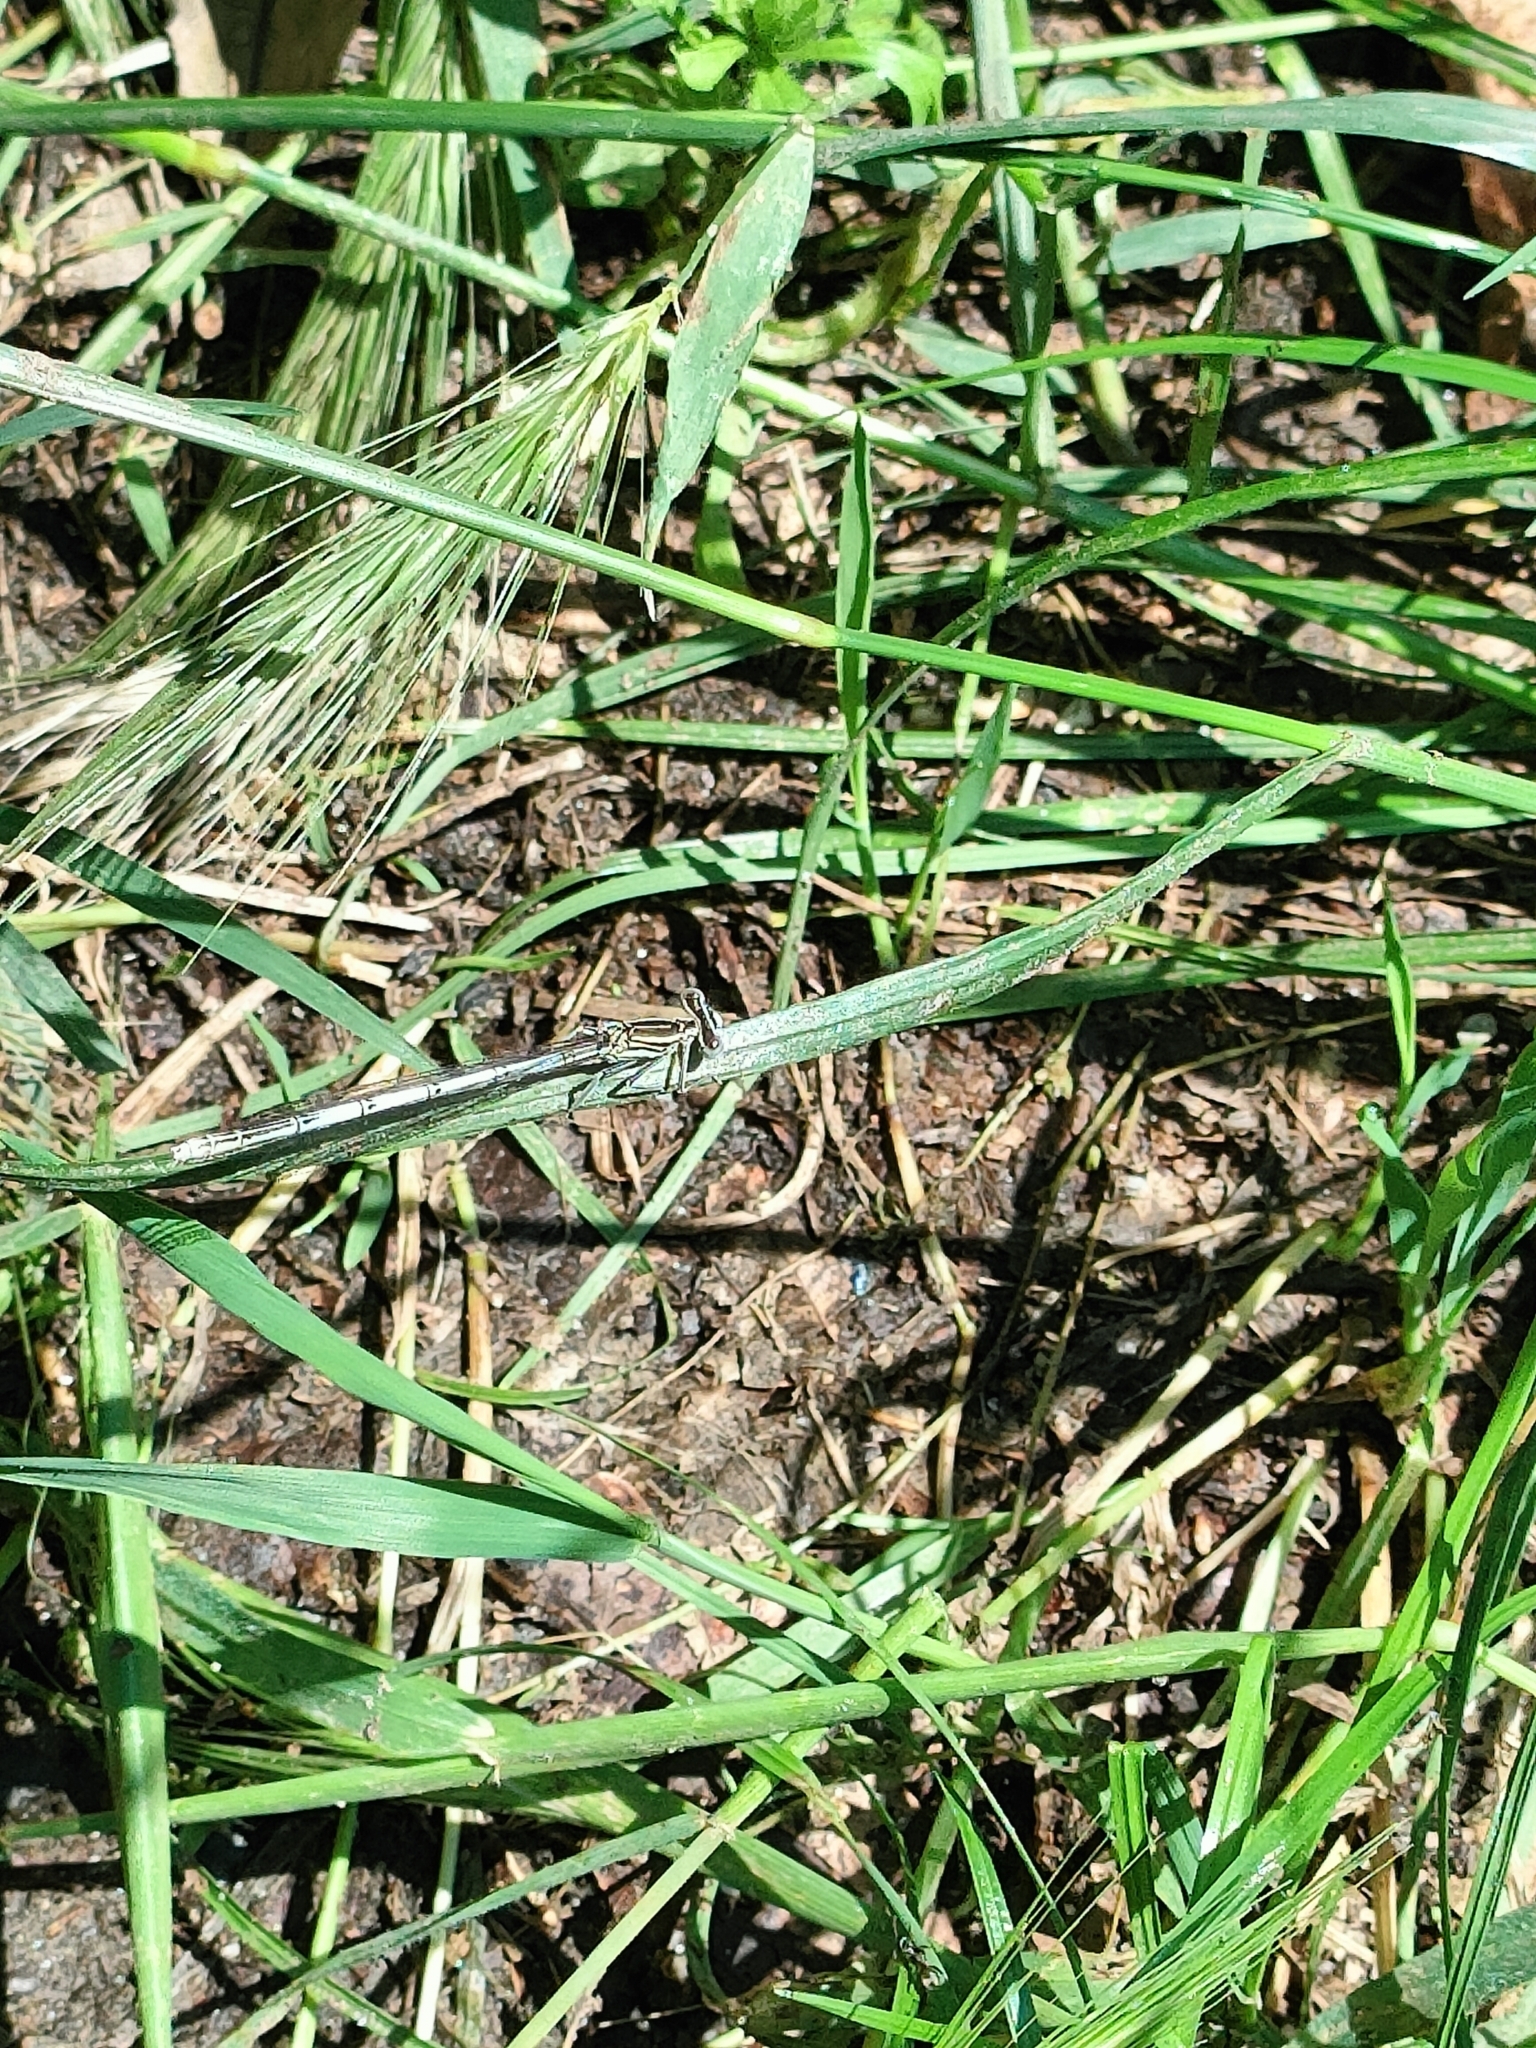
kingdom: Animalia
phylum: Arthropoda
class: Insecta
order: Odonata
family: Platycnemididae
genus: Platycnemis
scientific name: Platycnemis pennipes
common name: White-legged damselfly
